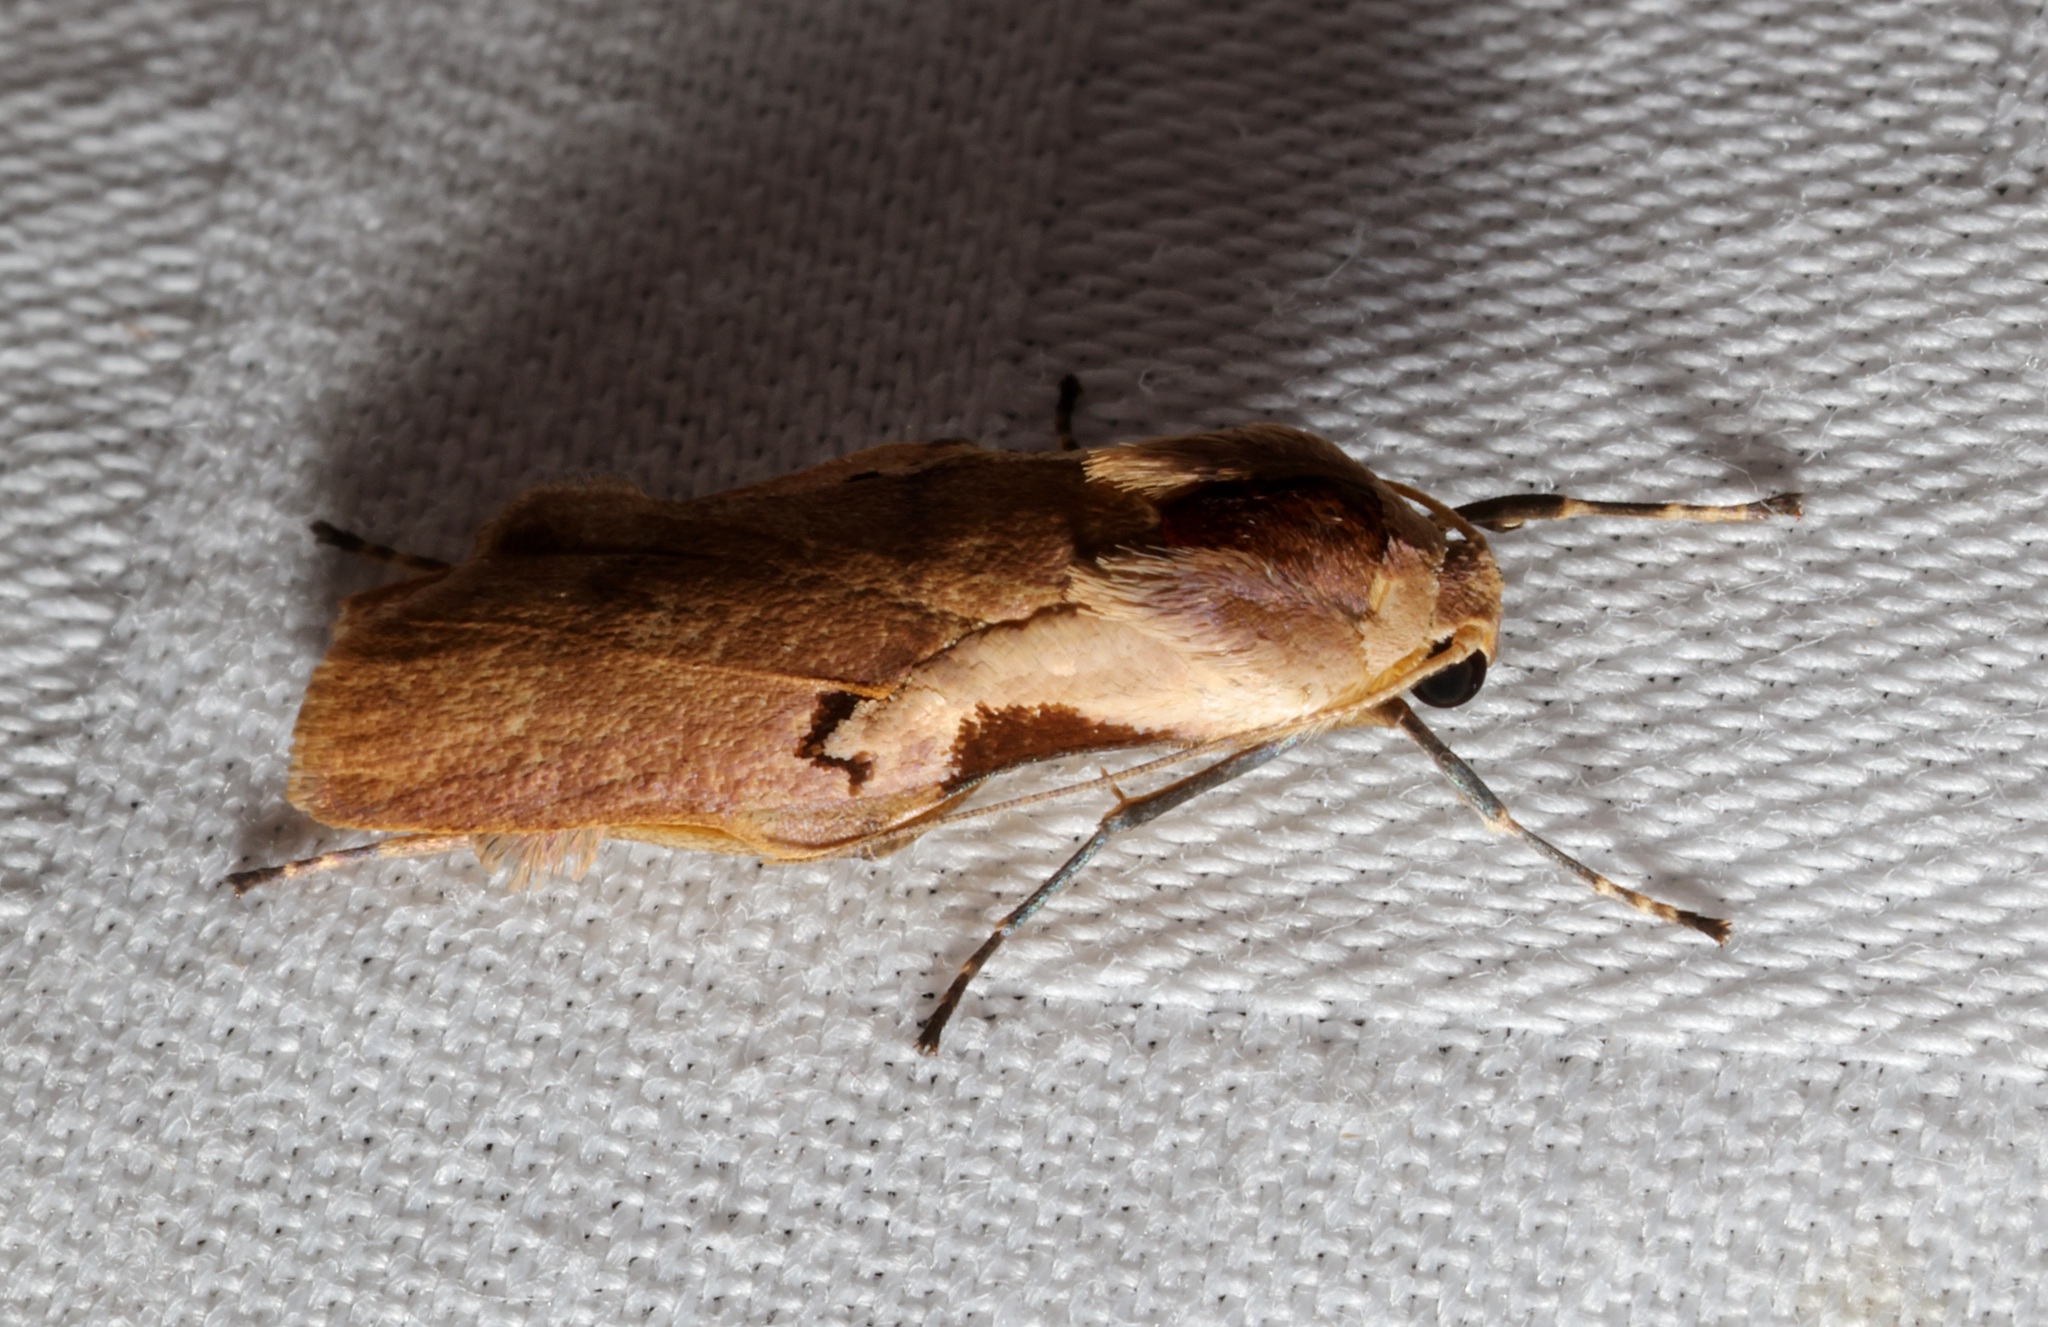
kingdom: Animalia
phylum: Arthropoda
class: Insecta
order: Lepidoptera
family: Erebidae
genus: Teulisna
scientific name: Teulisna tumida
